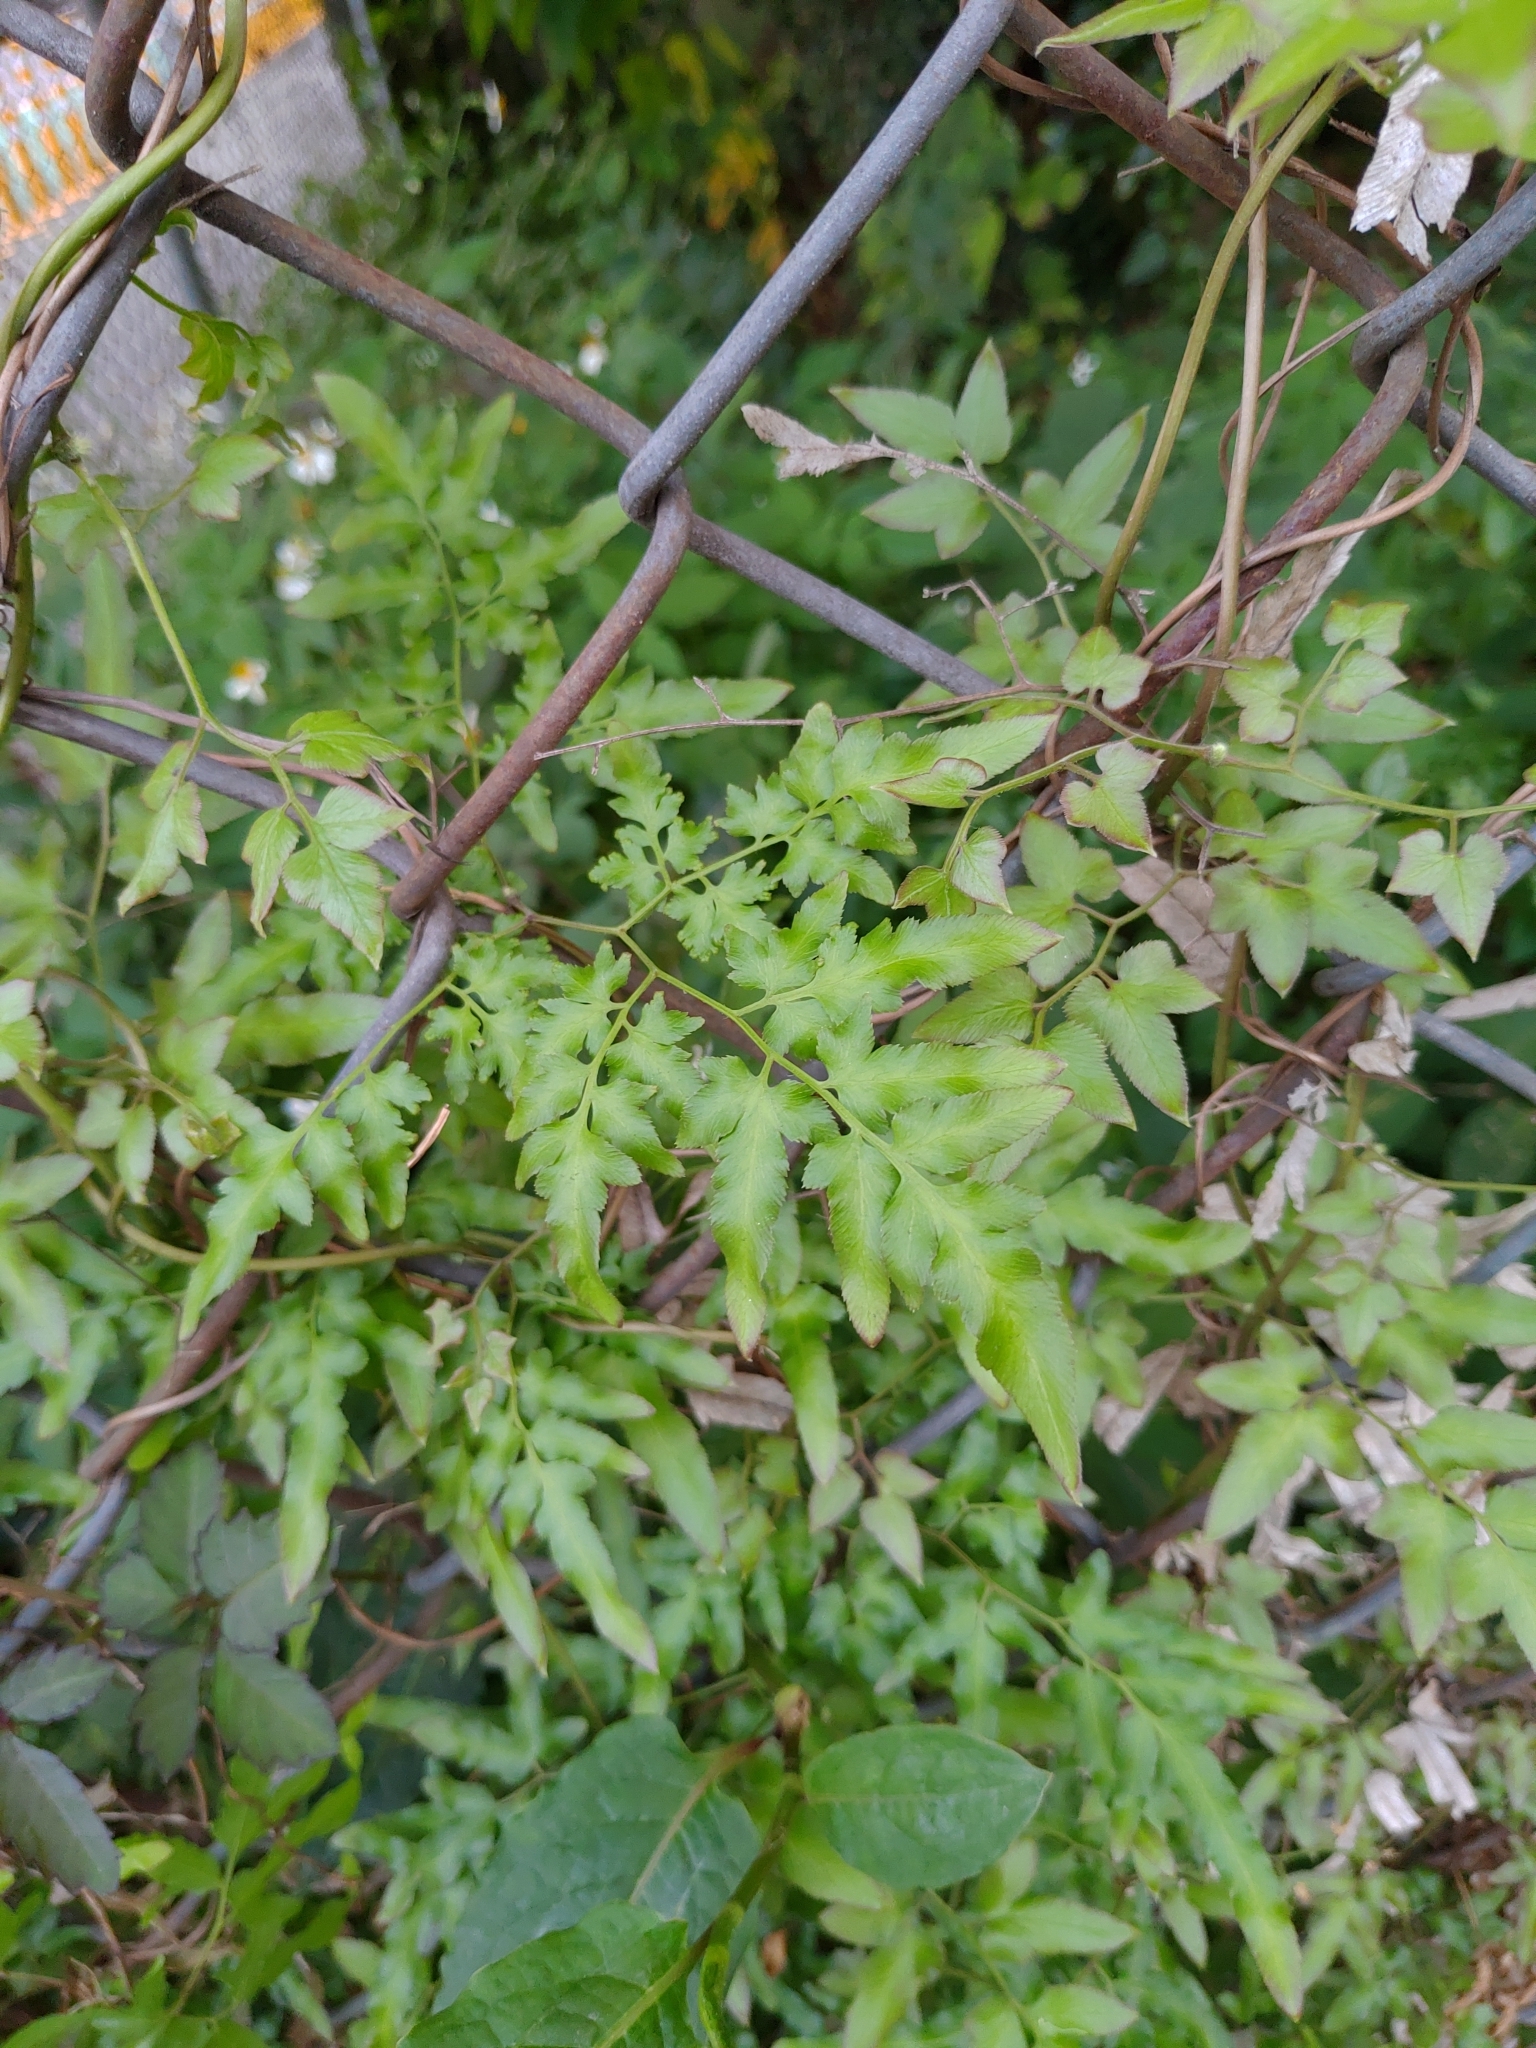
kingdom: Plantae
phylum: Tracheophyta
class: Polypodiopsida
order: Schizaeales
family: Lygodiaceae
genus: Lygodium
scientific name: Lygodium japonicum
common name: Japanese climbing fern
